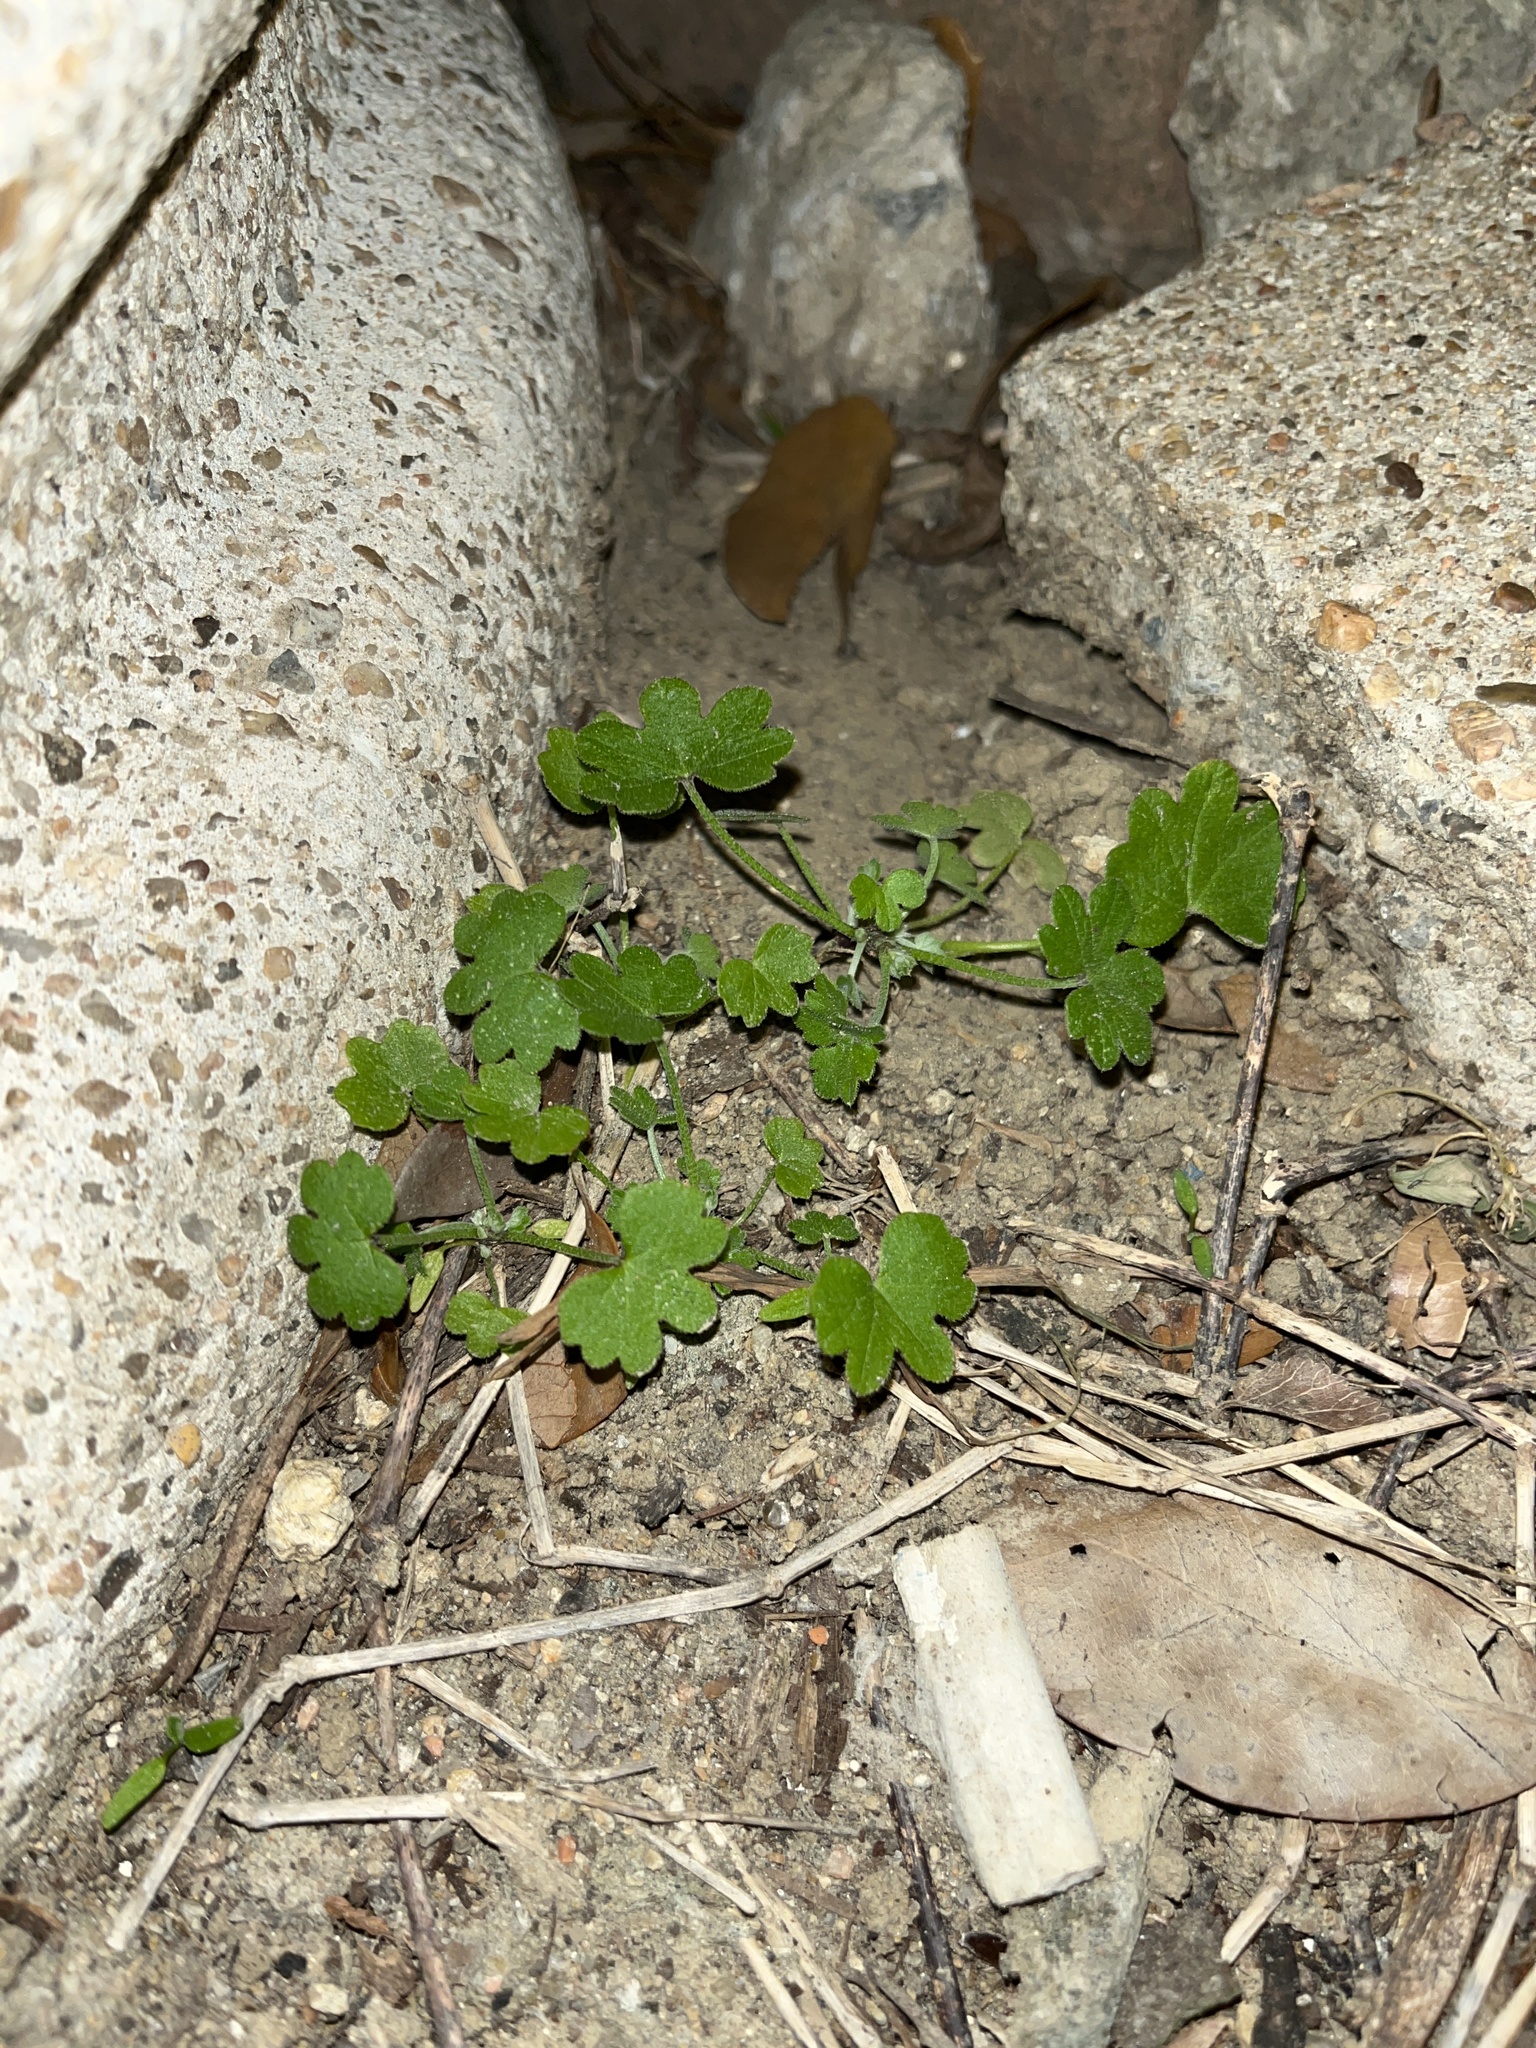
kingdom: Plantae
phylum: Tracheophyta
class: Magnoliopsida
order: Apiales
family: Apiaceae
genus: Bowlesia
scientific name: Bowlesia incana
